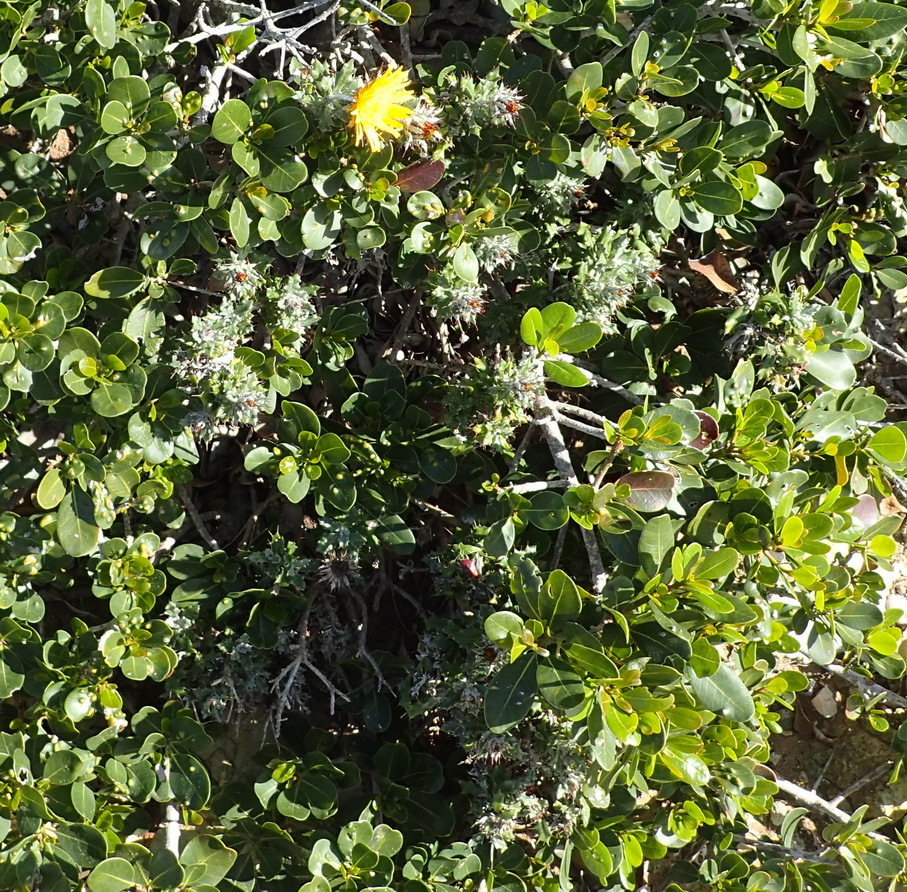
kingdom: Plantae
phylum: Tracheophyta
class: Magnoliopsida
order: Asterales
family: Asteraceae
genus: Berkheya
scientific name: Berkheya coriacea
